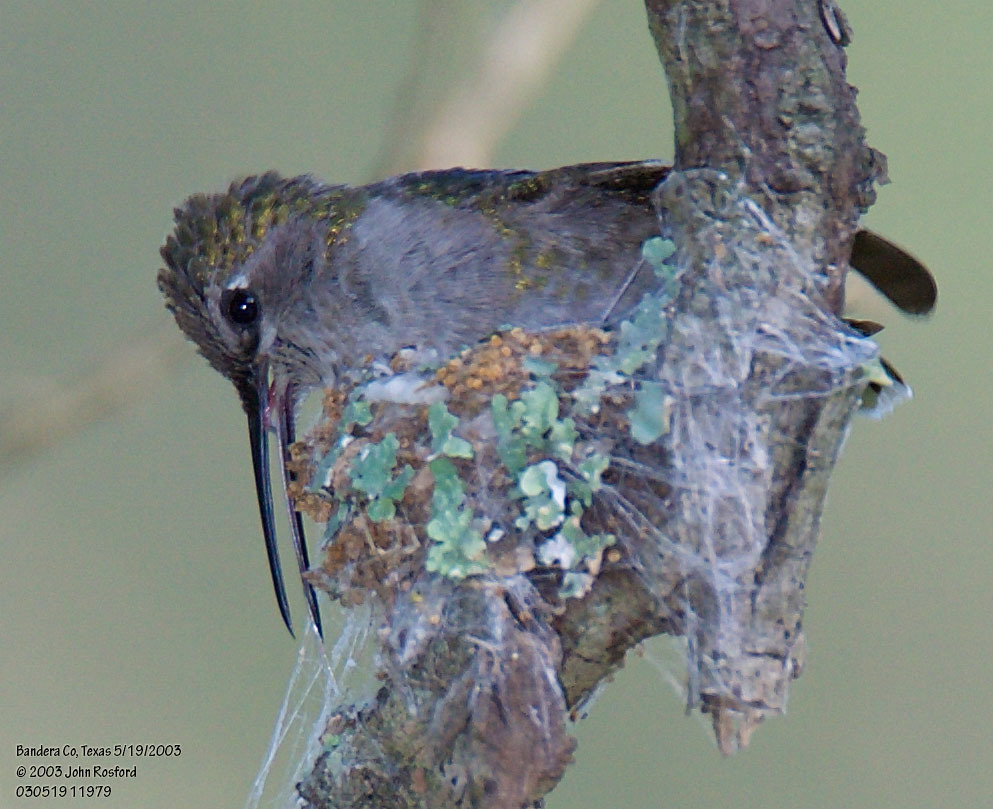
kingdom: Animalia
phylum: Chordata
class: Aves
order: Apodiformes
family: Trochilidae
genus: Archilochus
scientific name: Archilochus alexandri
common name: Black-chinned hummingbird
